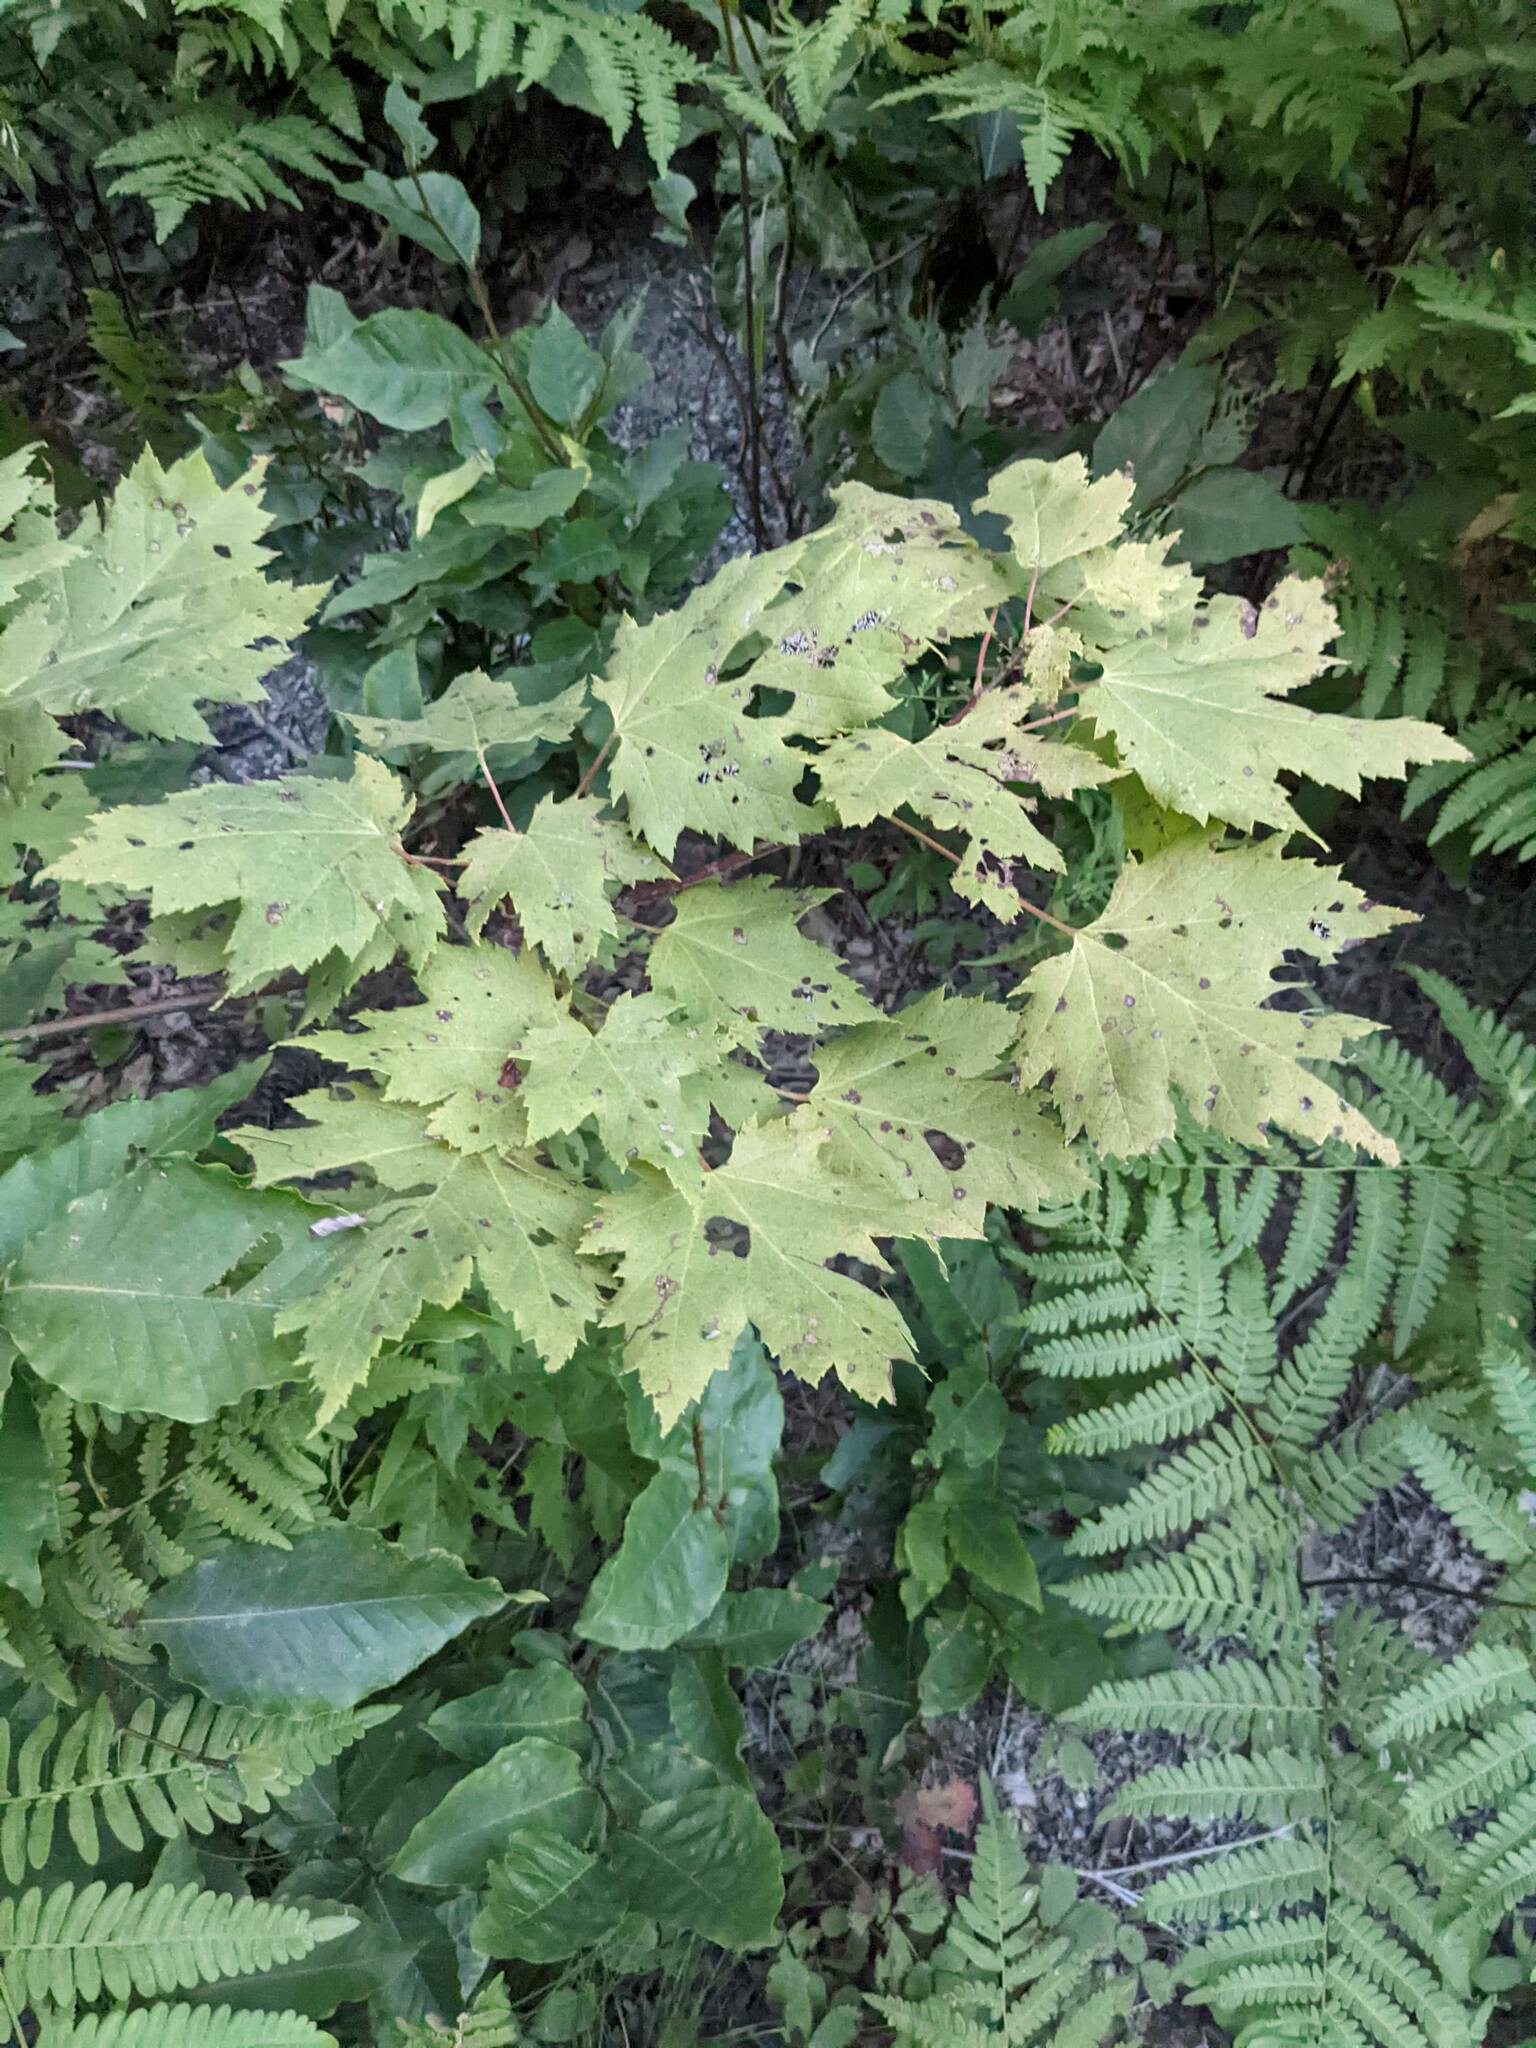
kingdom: Plantae
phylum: Tracheophyta
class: Magnoliopsida
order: Sapindales
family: Sapindaceae
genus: Acer
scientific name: Acer rubrum
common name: Red maple
